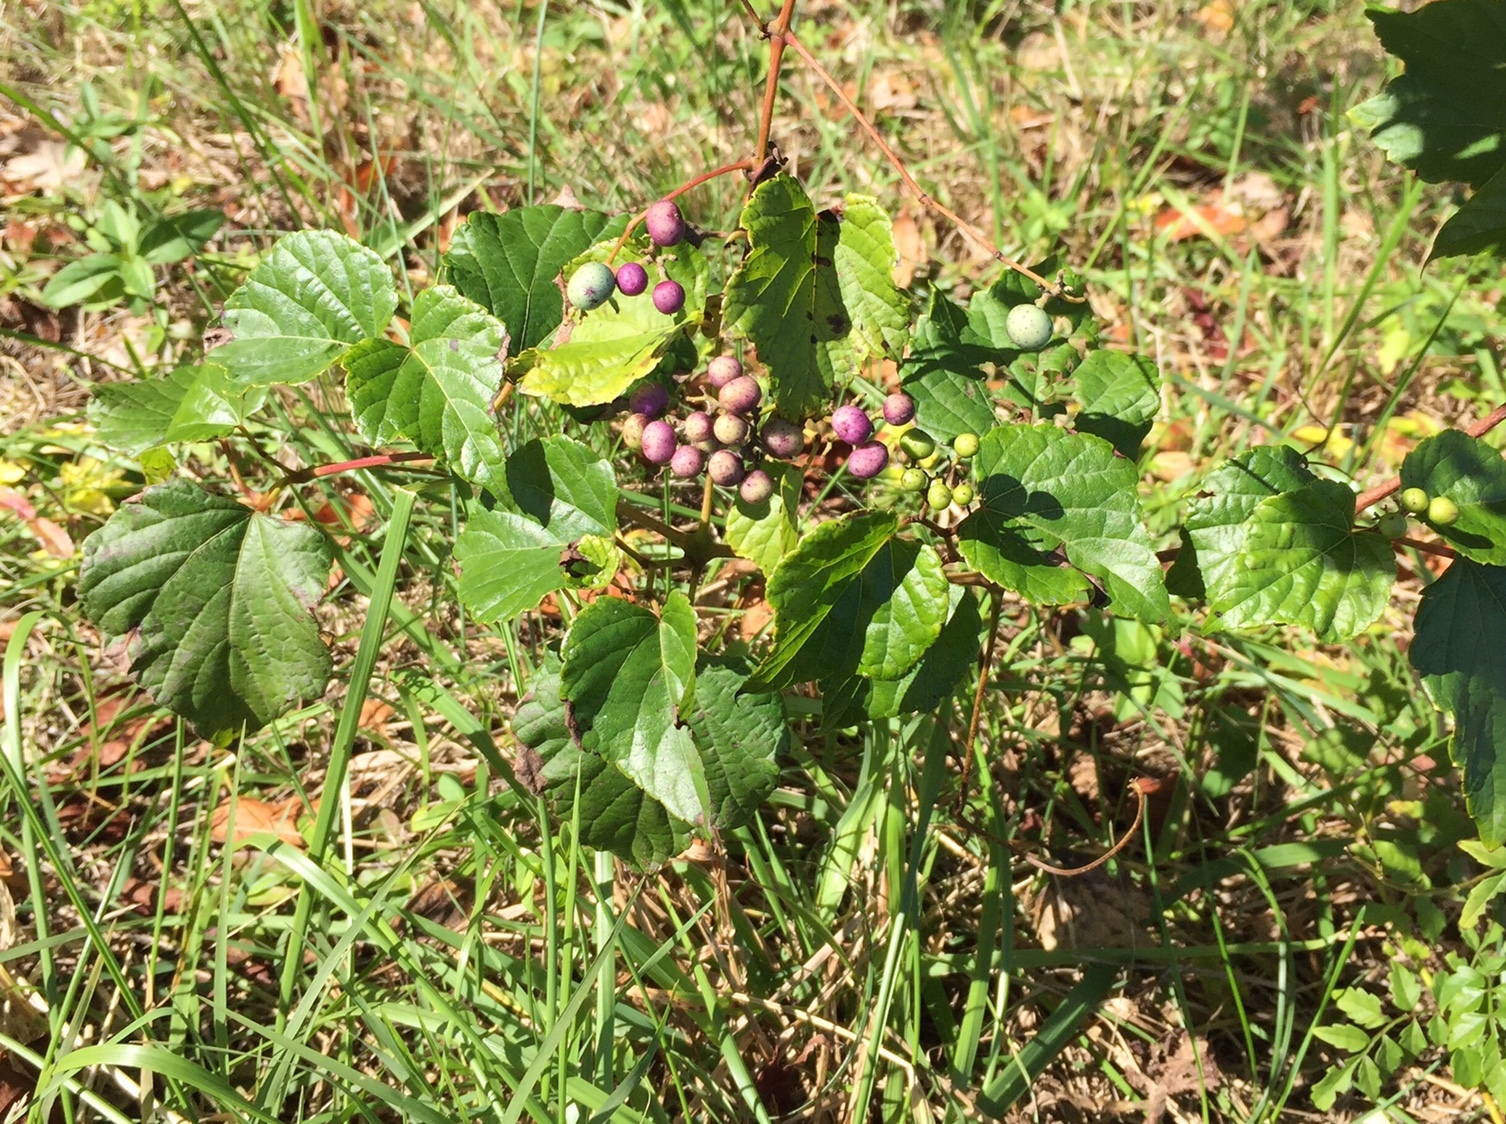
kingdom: Plantae
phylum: Tracheophyta
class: Magnoliopsida
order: Vitales
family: Vitaceae
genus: Ampelopsis
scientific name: Ampelopsis glandulosa
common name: Amur peppervine
